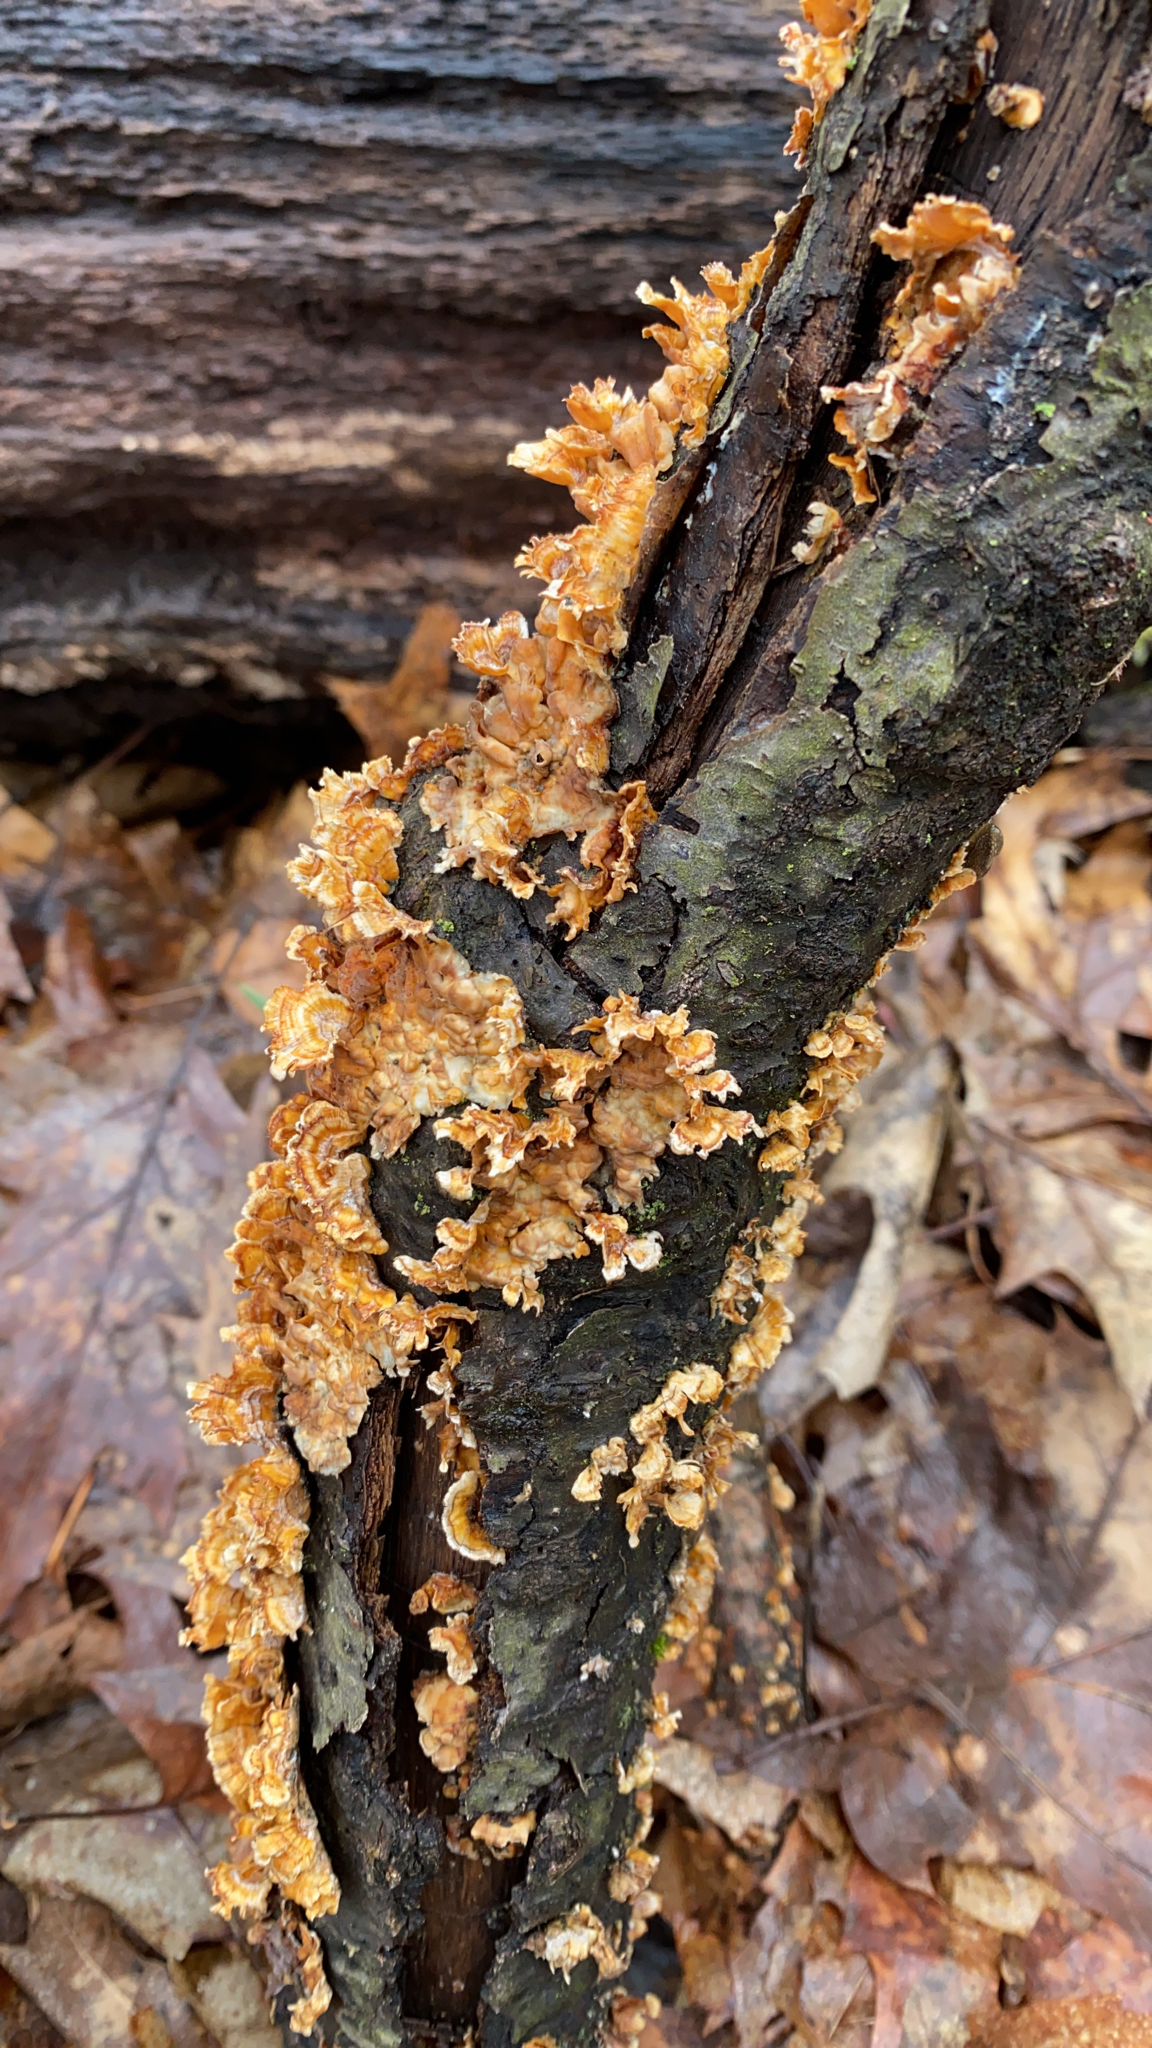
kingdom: Fungi
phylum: Basidiomycota
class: Agaricomycetes
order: Russulales
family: Stereaceae
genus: Stereum
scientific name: Stereum complicatum
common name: Crowded parchment
